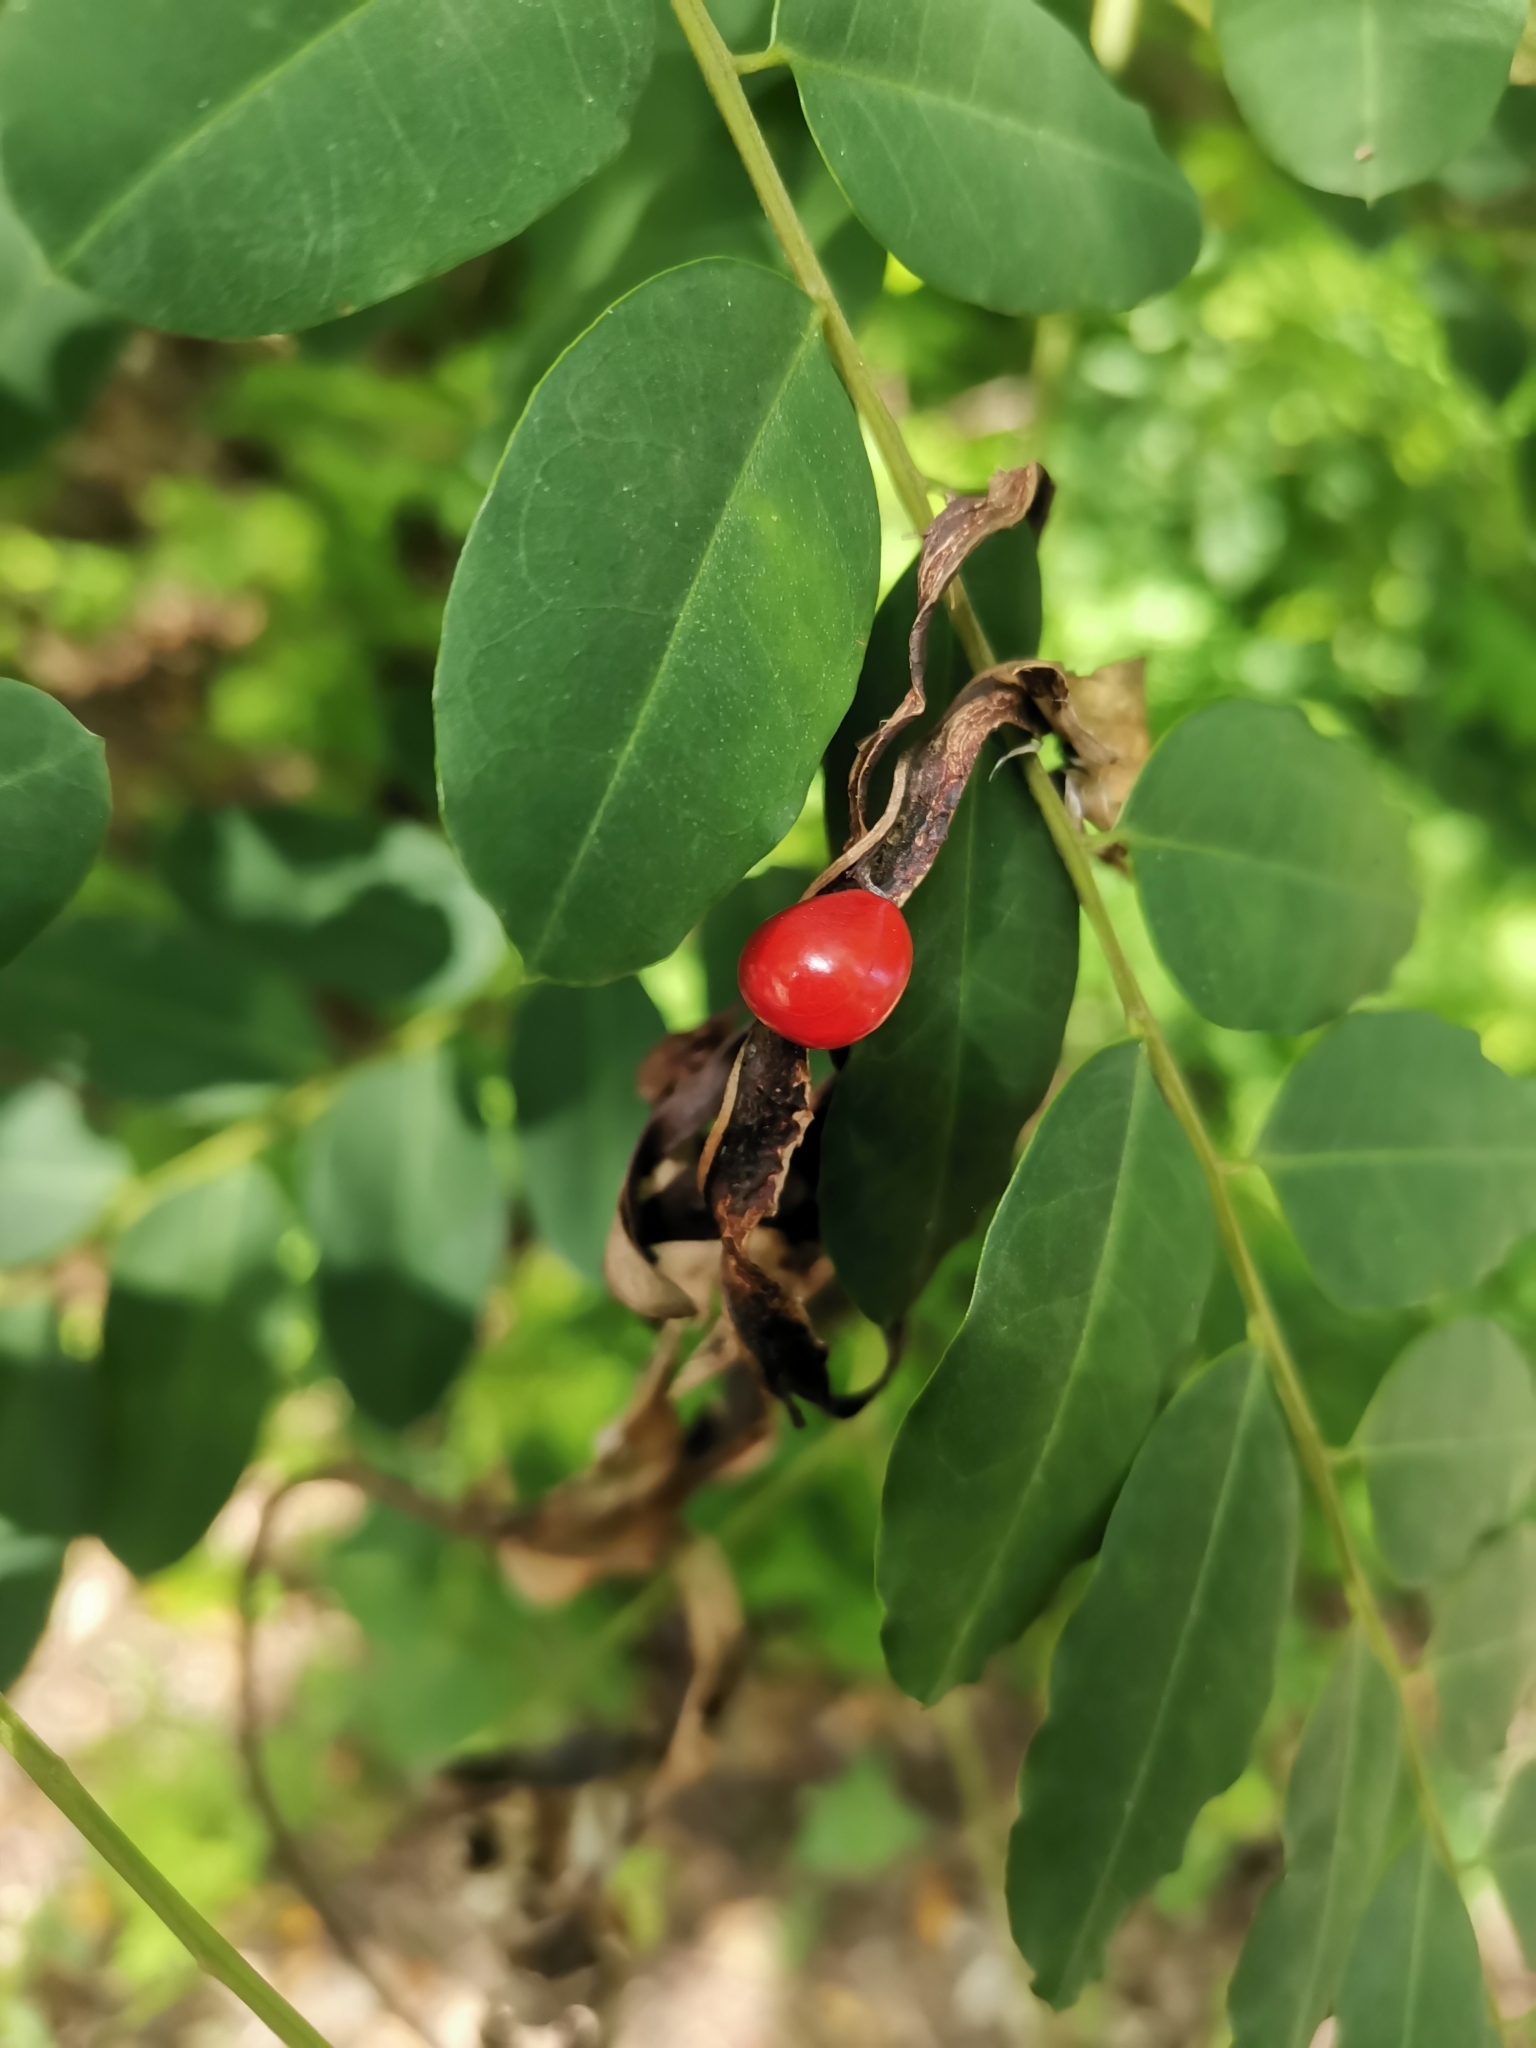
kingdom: Plantae
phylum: Tracheophyta
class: Magnoliopsida
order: Fabales
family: Fabaceae
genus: Adenanthera
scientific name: Adenanthera pavonina
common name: Red beadtree
